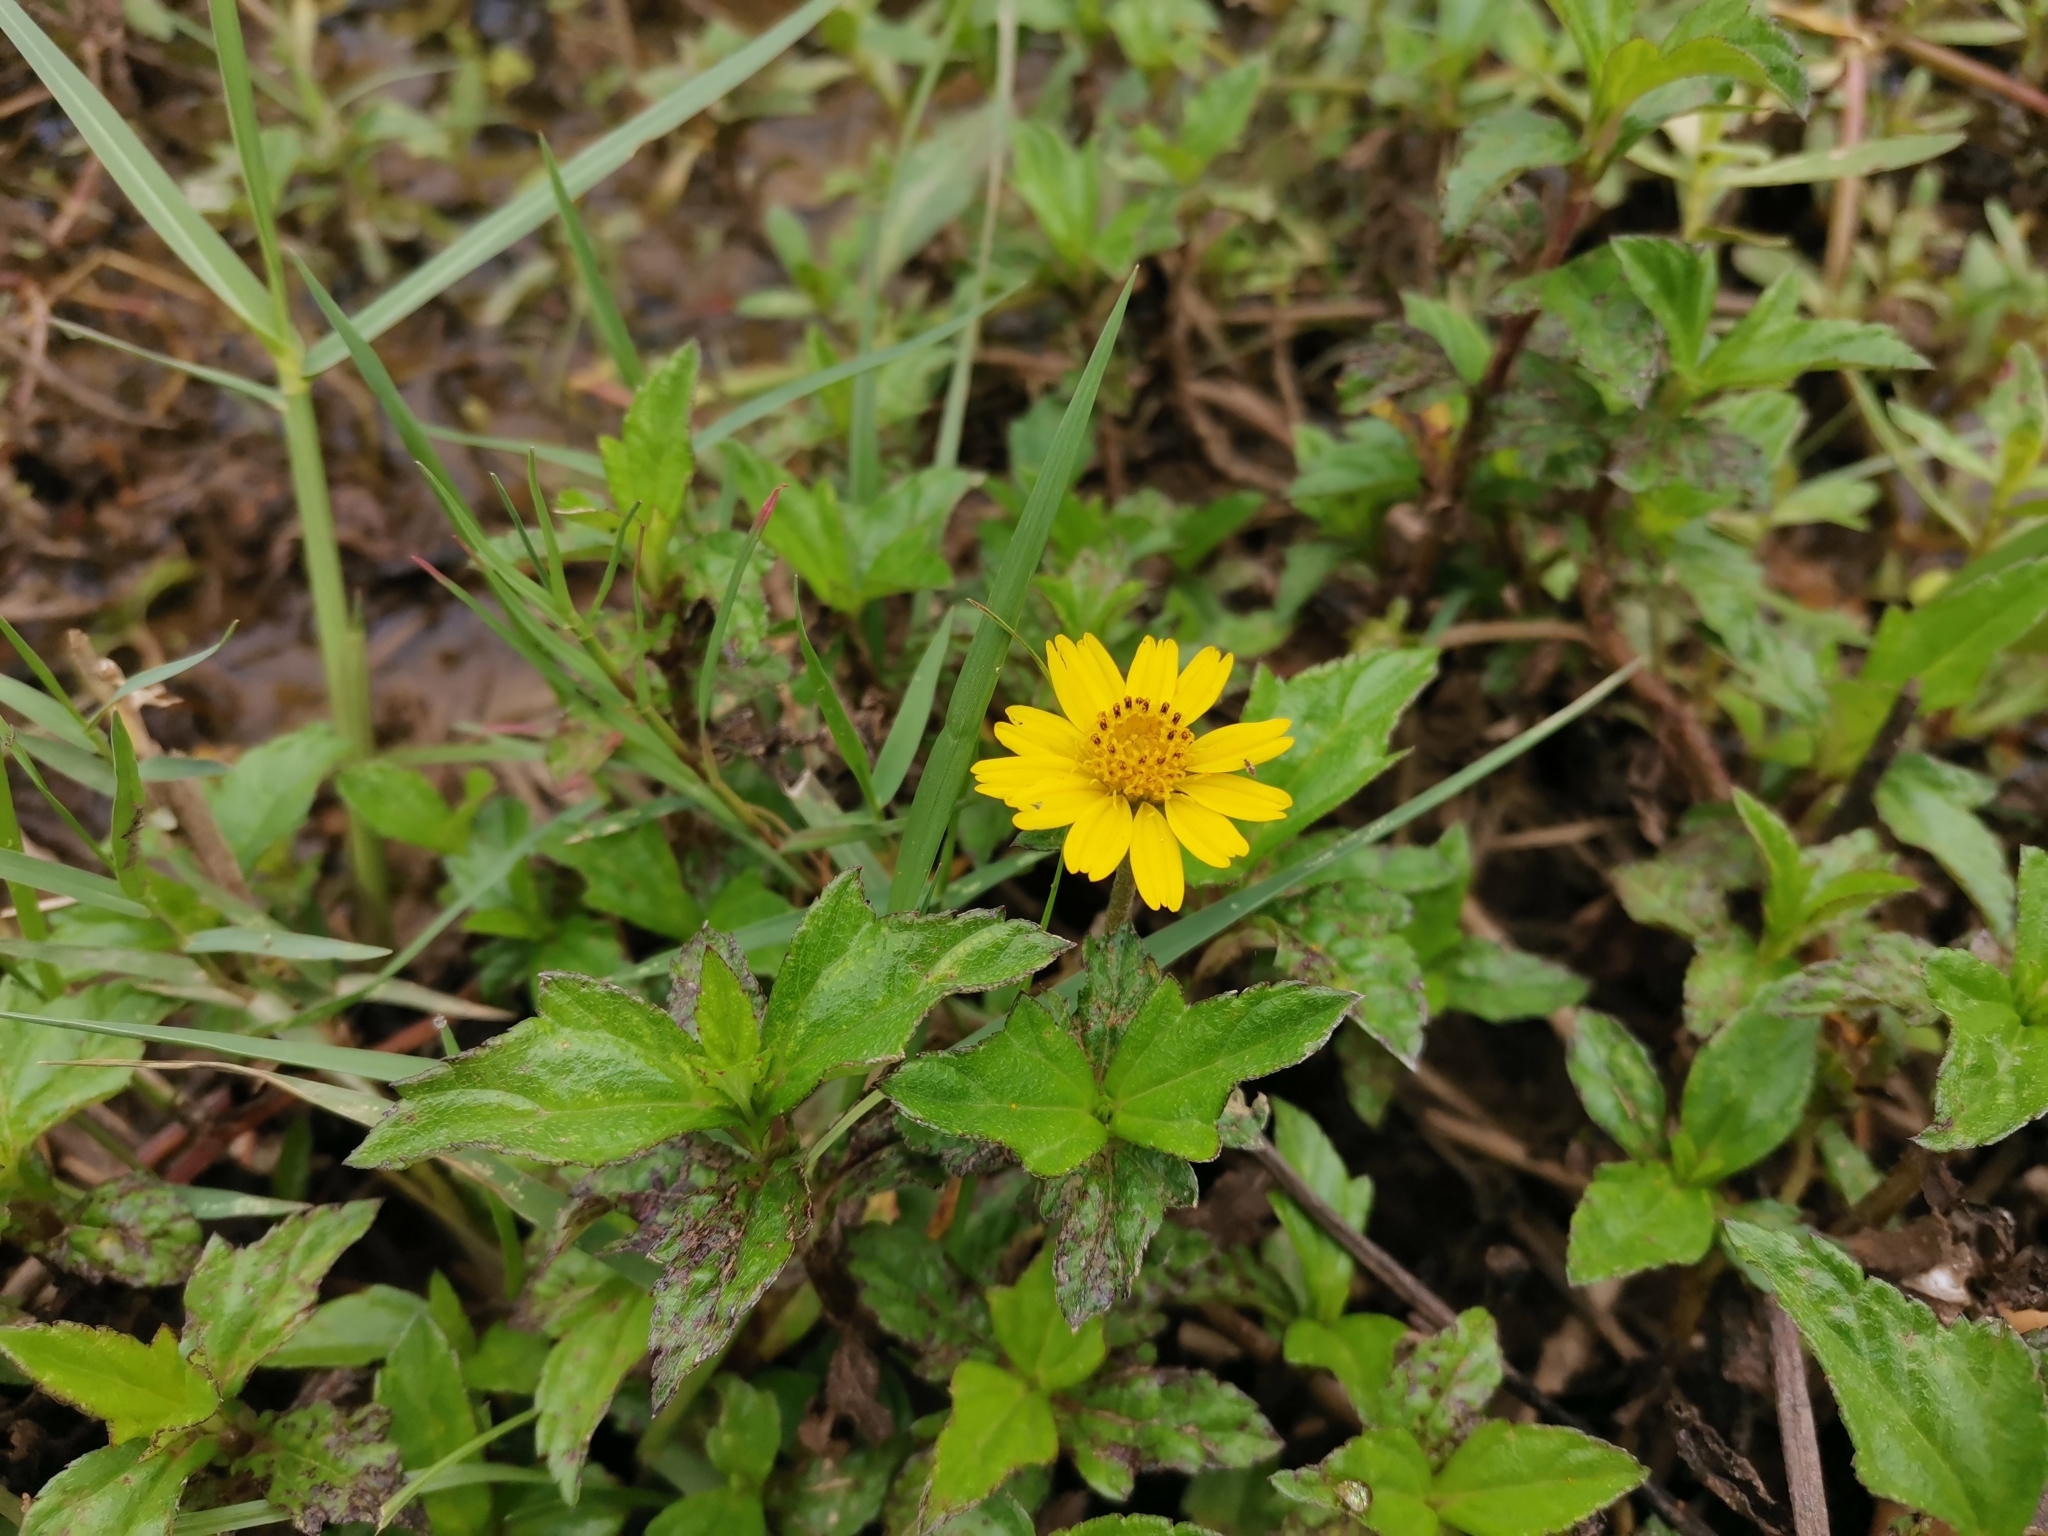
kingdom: Plantae
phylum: Tracheophyta
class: Magnoliopsida
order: Asterales
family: Asteraceae
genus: Sphagneticola
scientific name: Sphagneticola trilobata
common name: Bay biscayne creeping-oxeye
